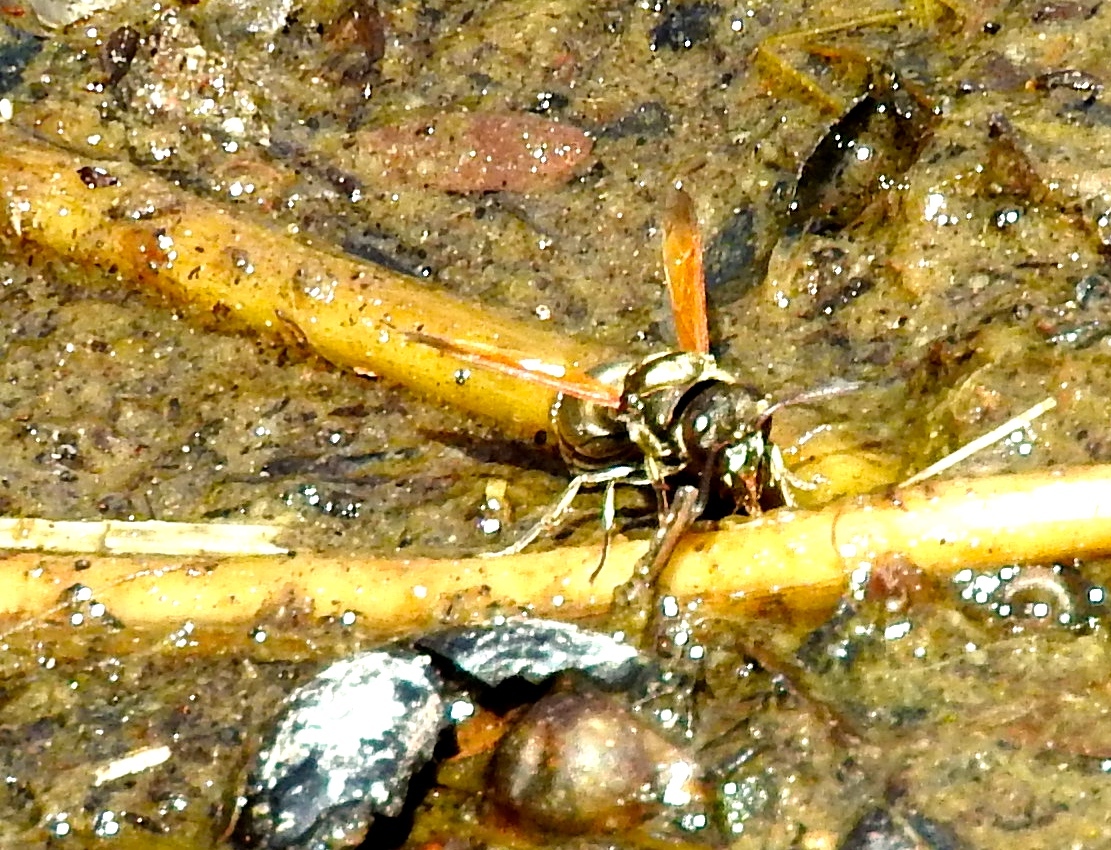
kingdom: Animalia
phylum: Arthropoda
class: Insecta
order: Hymenoptera
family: Vespidae
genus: Brachygastra
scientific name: Brachygastra mellifica
